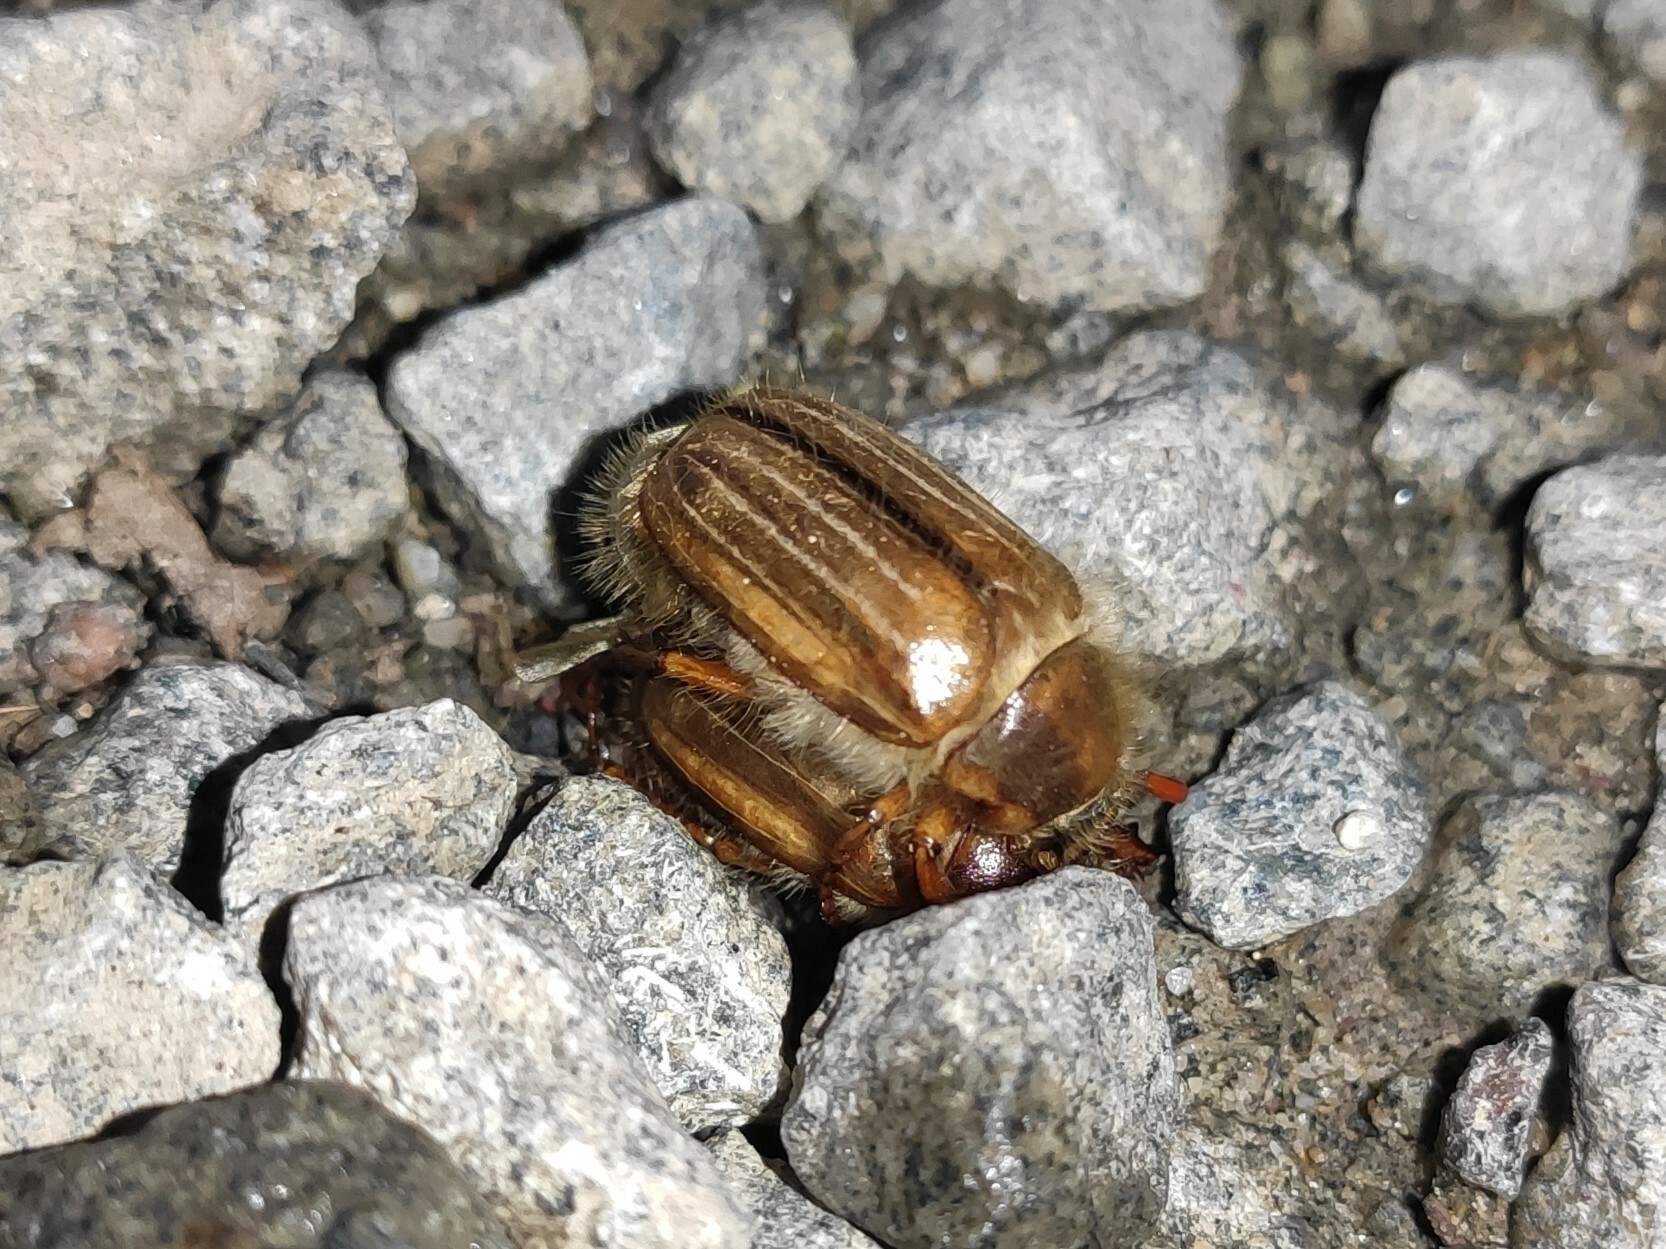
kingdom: Animalia
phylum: Arthropoda
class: Insecta
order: Coleoptera
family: Scarabaeidae
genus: Amphimallon
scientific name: Amphimallon solstitiale
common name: Summer chafer
